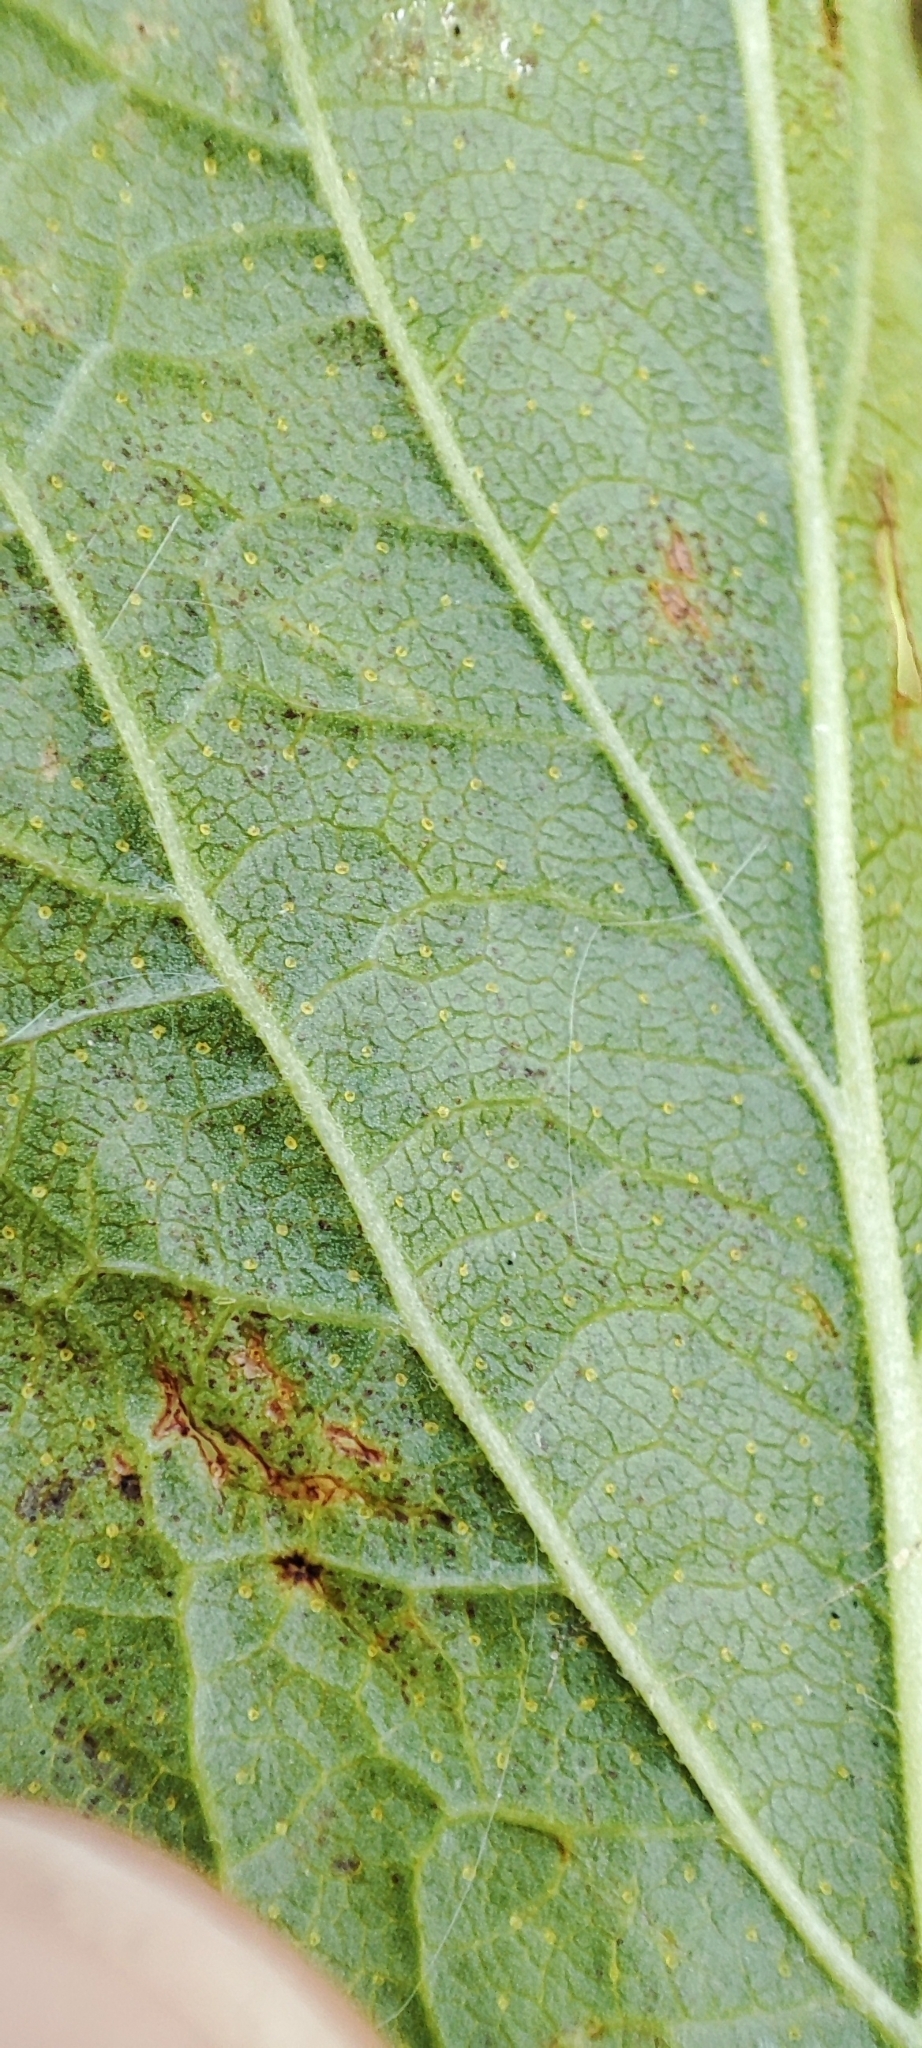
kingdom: Plantae
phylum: Tracheophyta
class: Magnoliopsida
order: Saxifragales
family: Grossulariaceae
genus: Ribes
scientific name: Ribes nigrum
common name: Black currant
